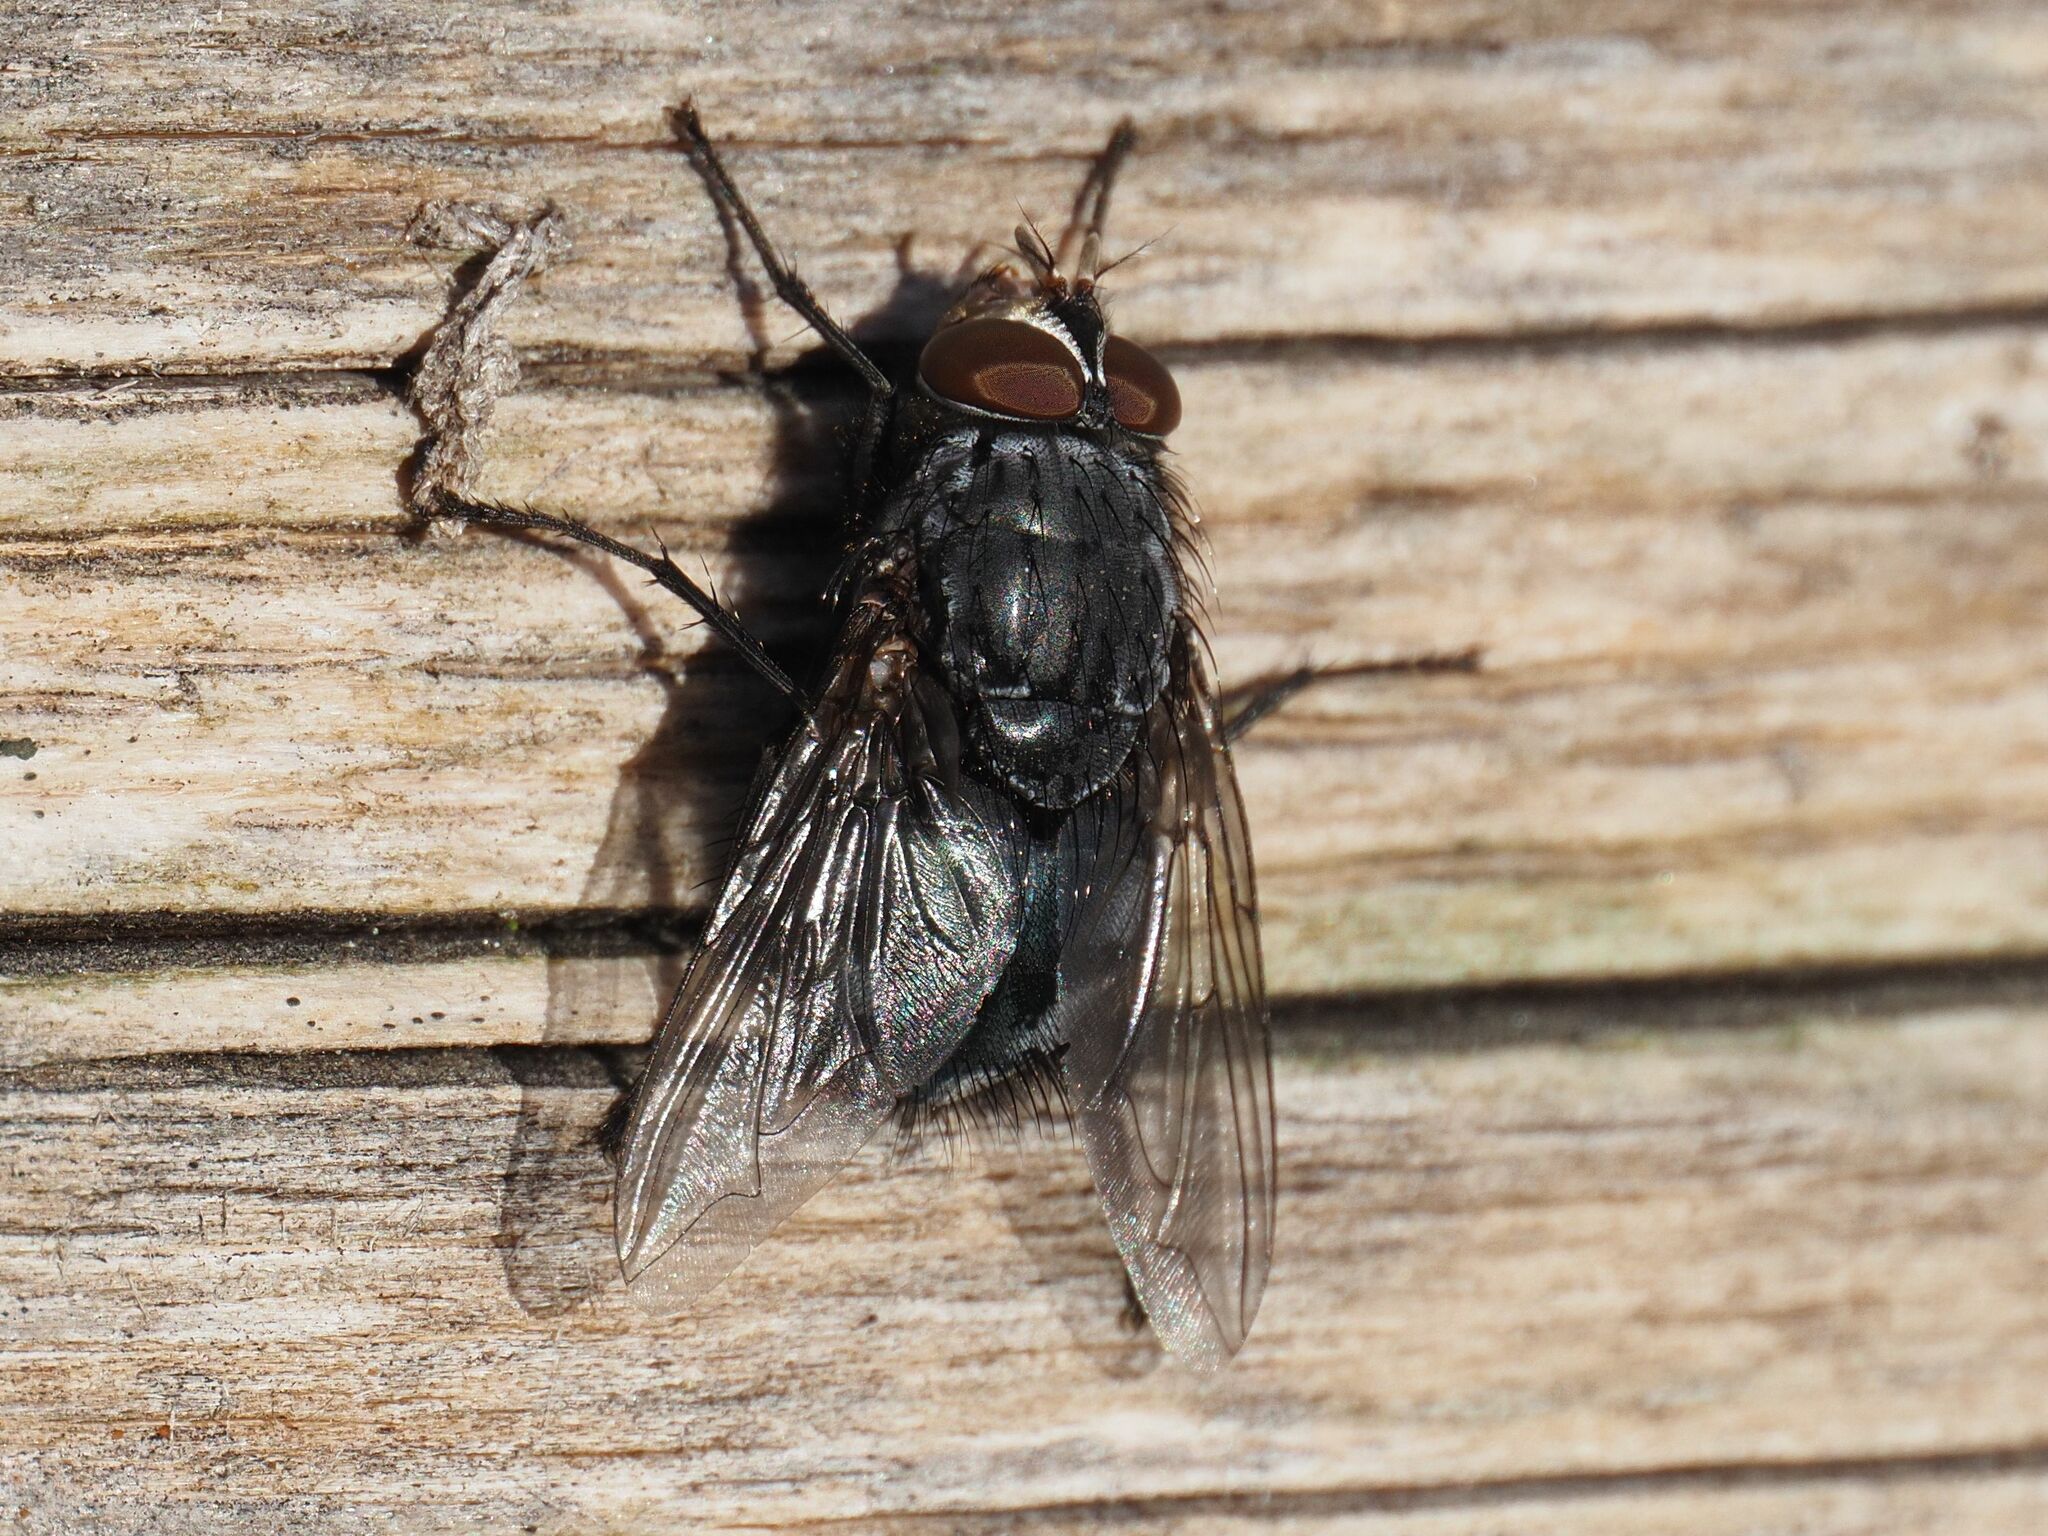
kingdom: Animalia
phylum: Arthropoda
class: Insecta
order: Diptera
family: Calliphoridae
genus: Calliphora
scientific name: Calliphora vicina
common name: Common blow flie
